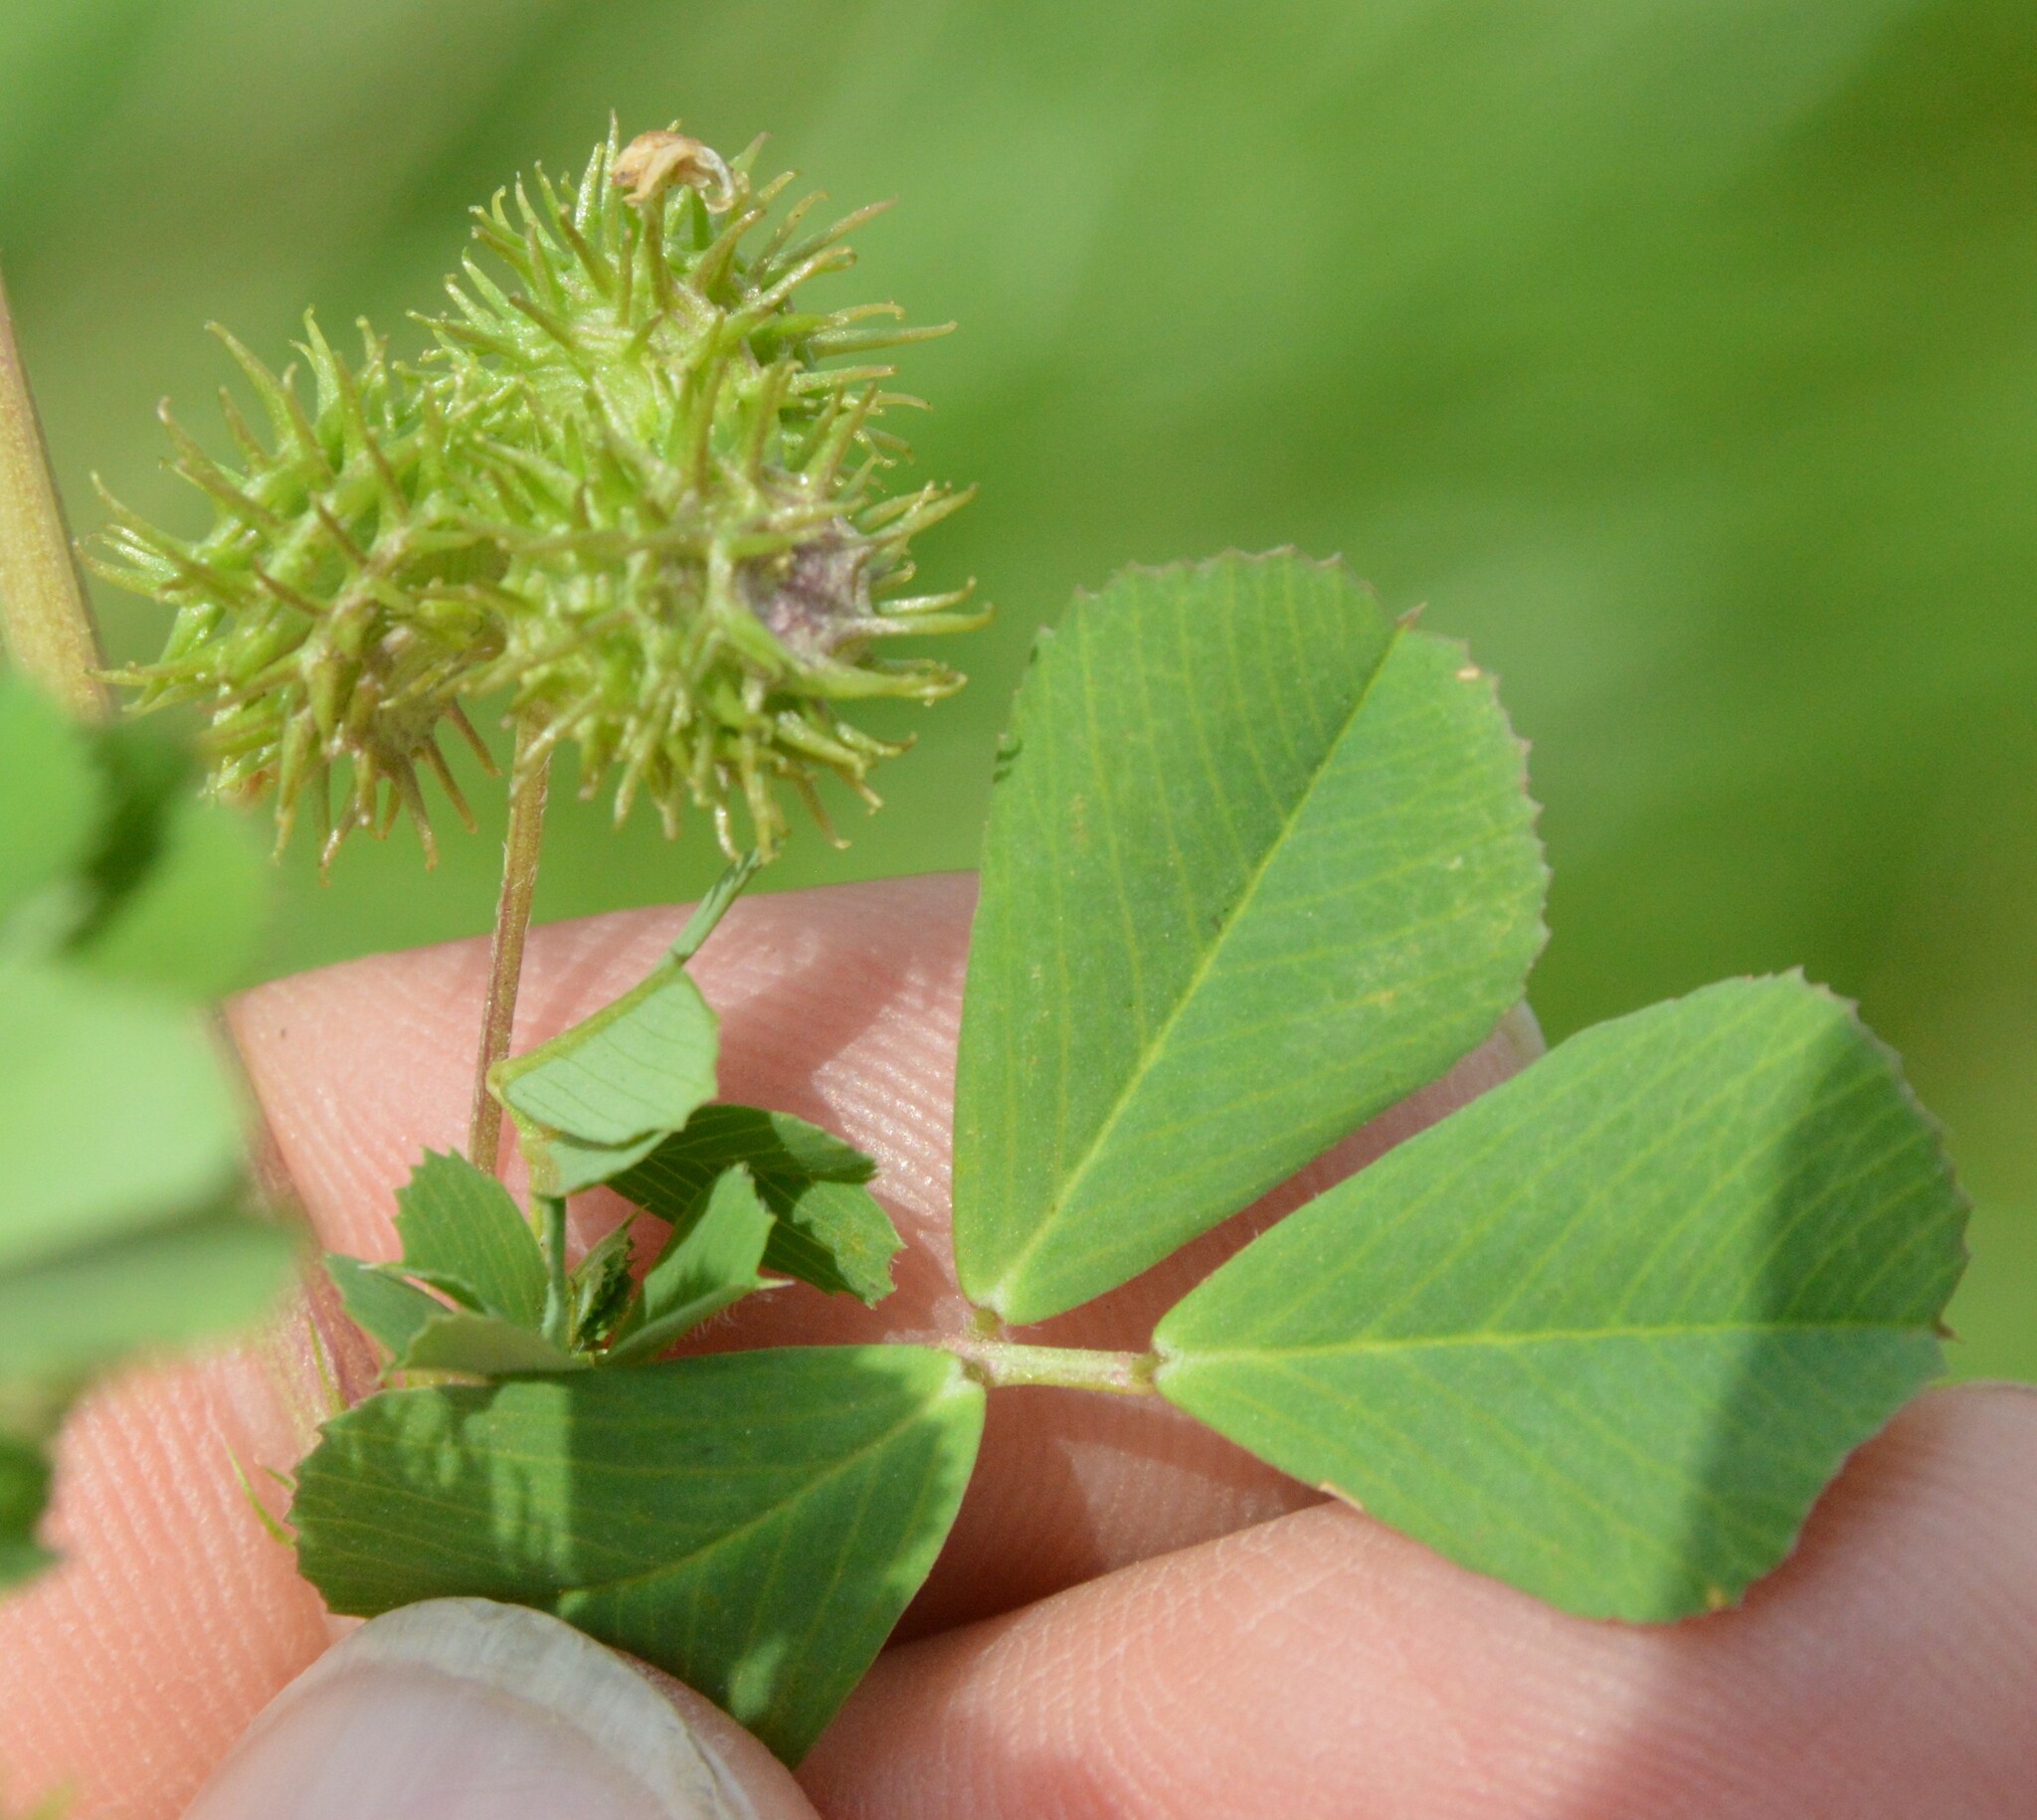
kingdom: Plantae
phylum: Tracheophyta
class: Magnoliopsida
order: Fabales
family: Fabaceae
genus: Medicago
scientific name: Medicago polymorpha
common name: Burclover
